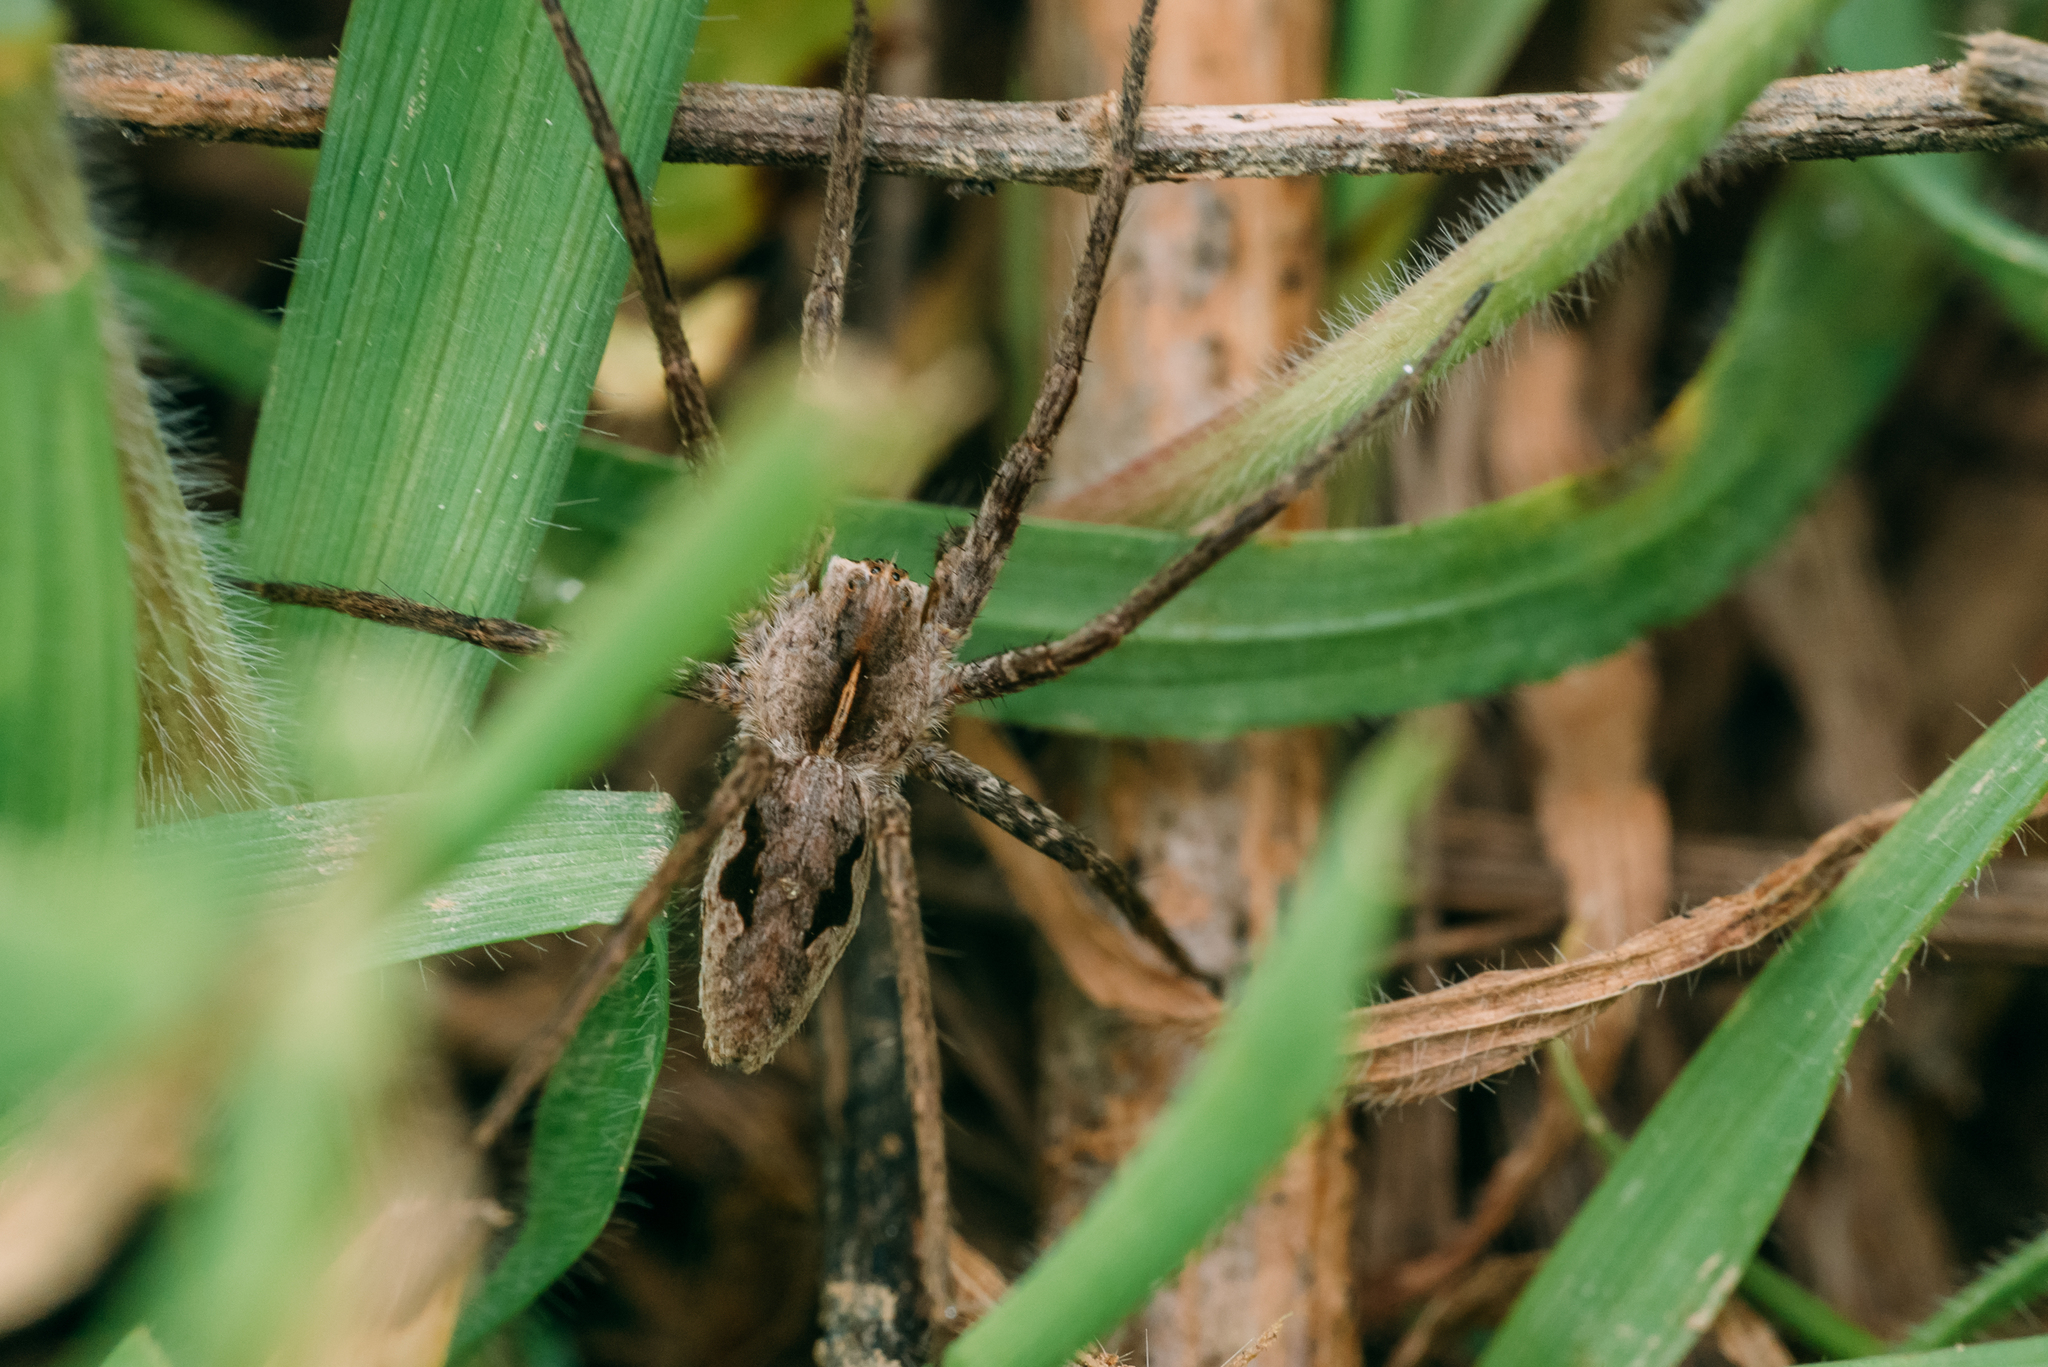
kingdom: Animalia
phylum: Arthropoda
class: Arachnida
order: Araneae
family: Pisauridae
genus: Pisaura
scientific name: Pisaura
